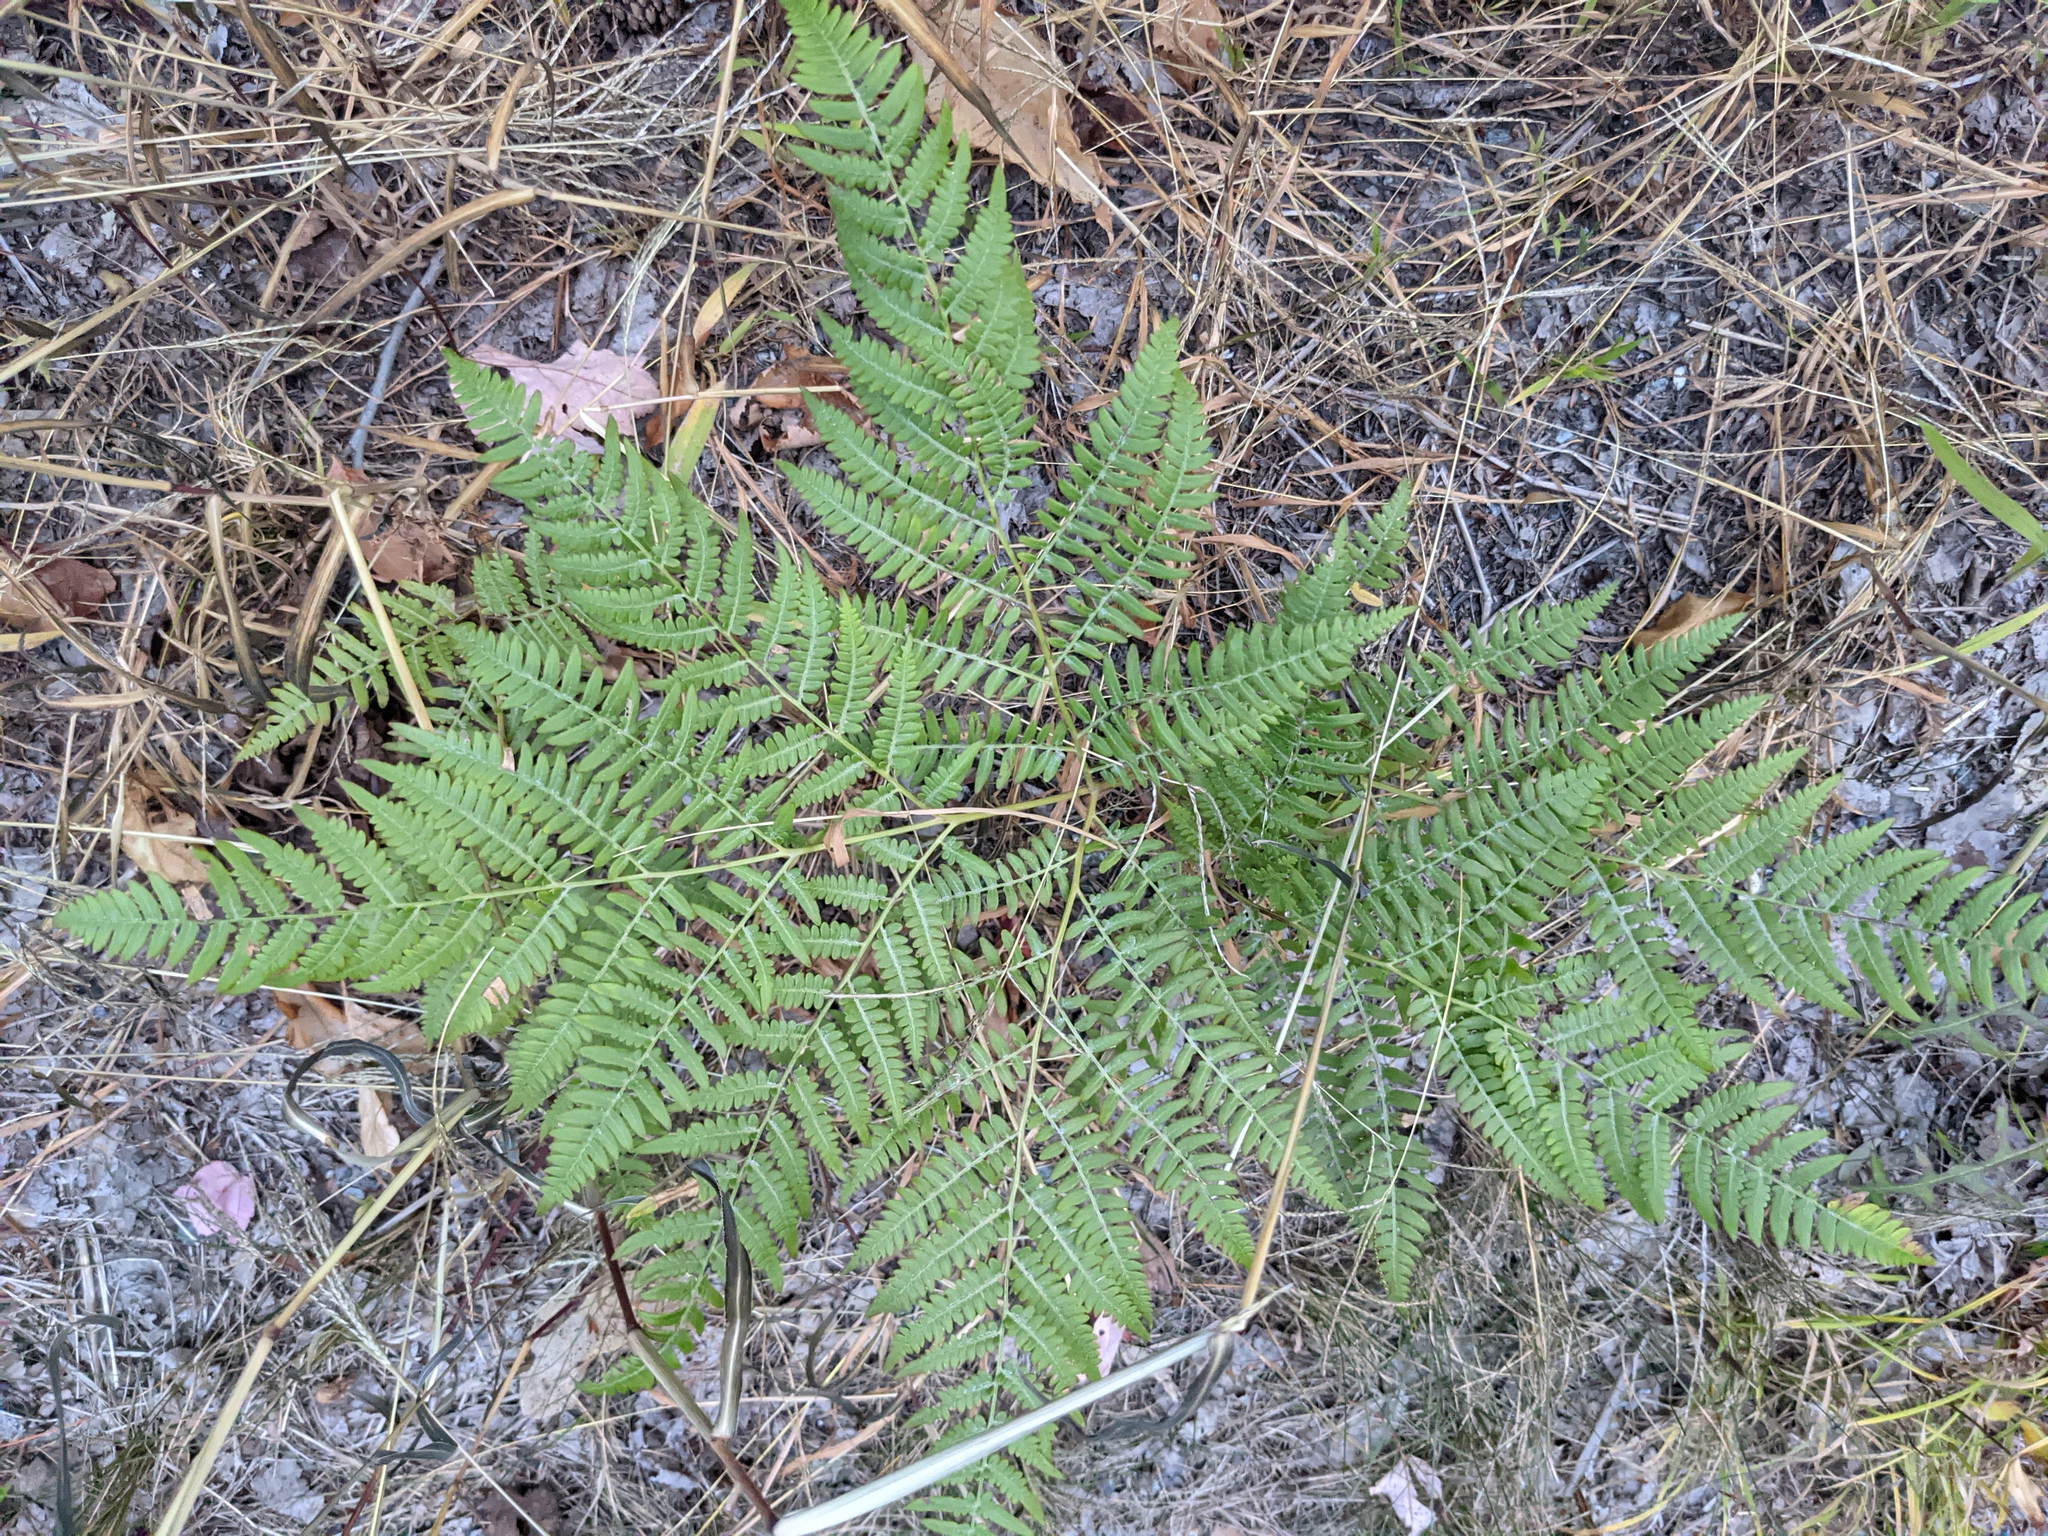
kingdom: Plantae
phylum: Tracheophyta
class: Polypodiopsida
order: Polypodiales
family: Dennstaedtiaceae
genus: Pteridium
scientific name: Pteridium aquilinum
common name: Bracken
